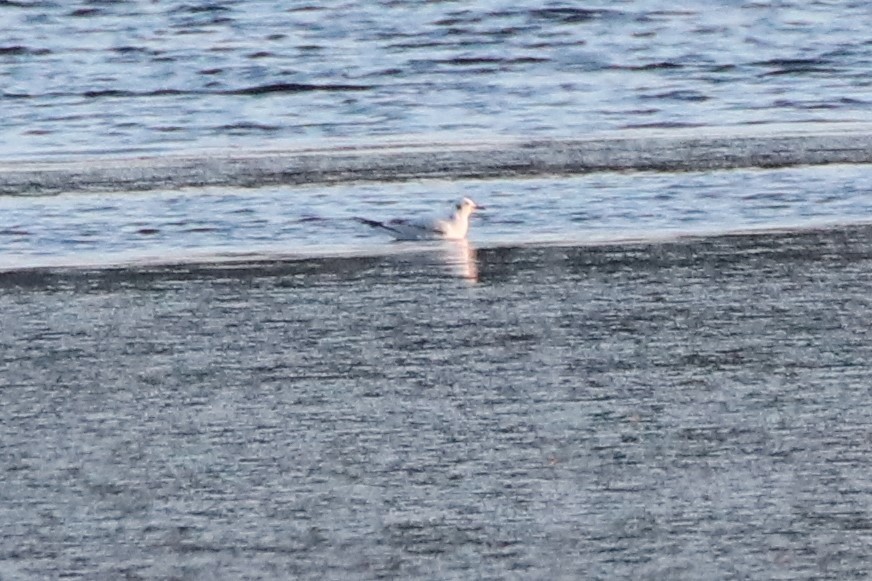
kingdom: Animalia
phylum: Chordata
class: Aves
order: Charadriiformes
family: Laridae
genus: Chroicocephalus
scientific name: Chroicocephalus philadelphia
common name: Bonaparte's gull
